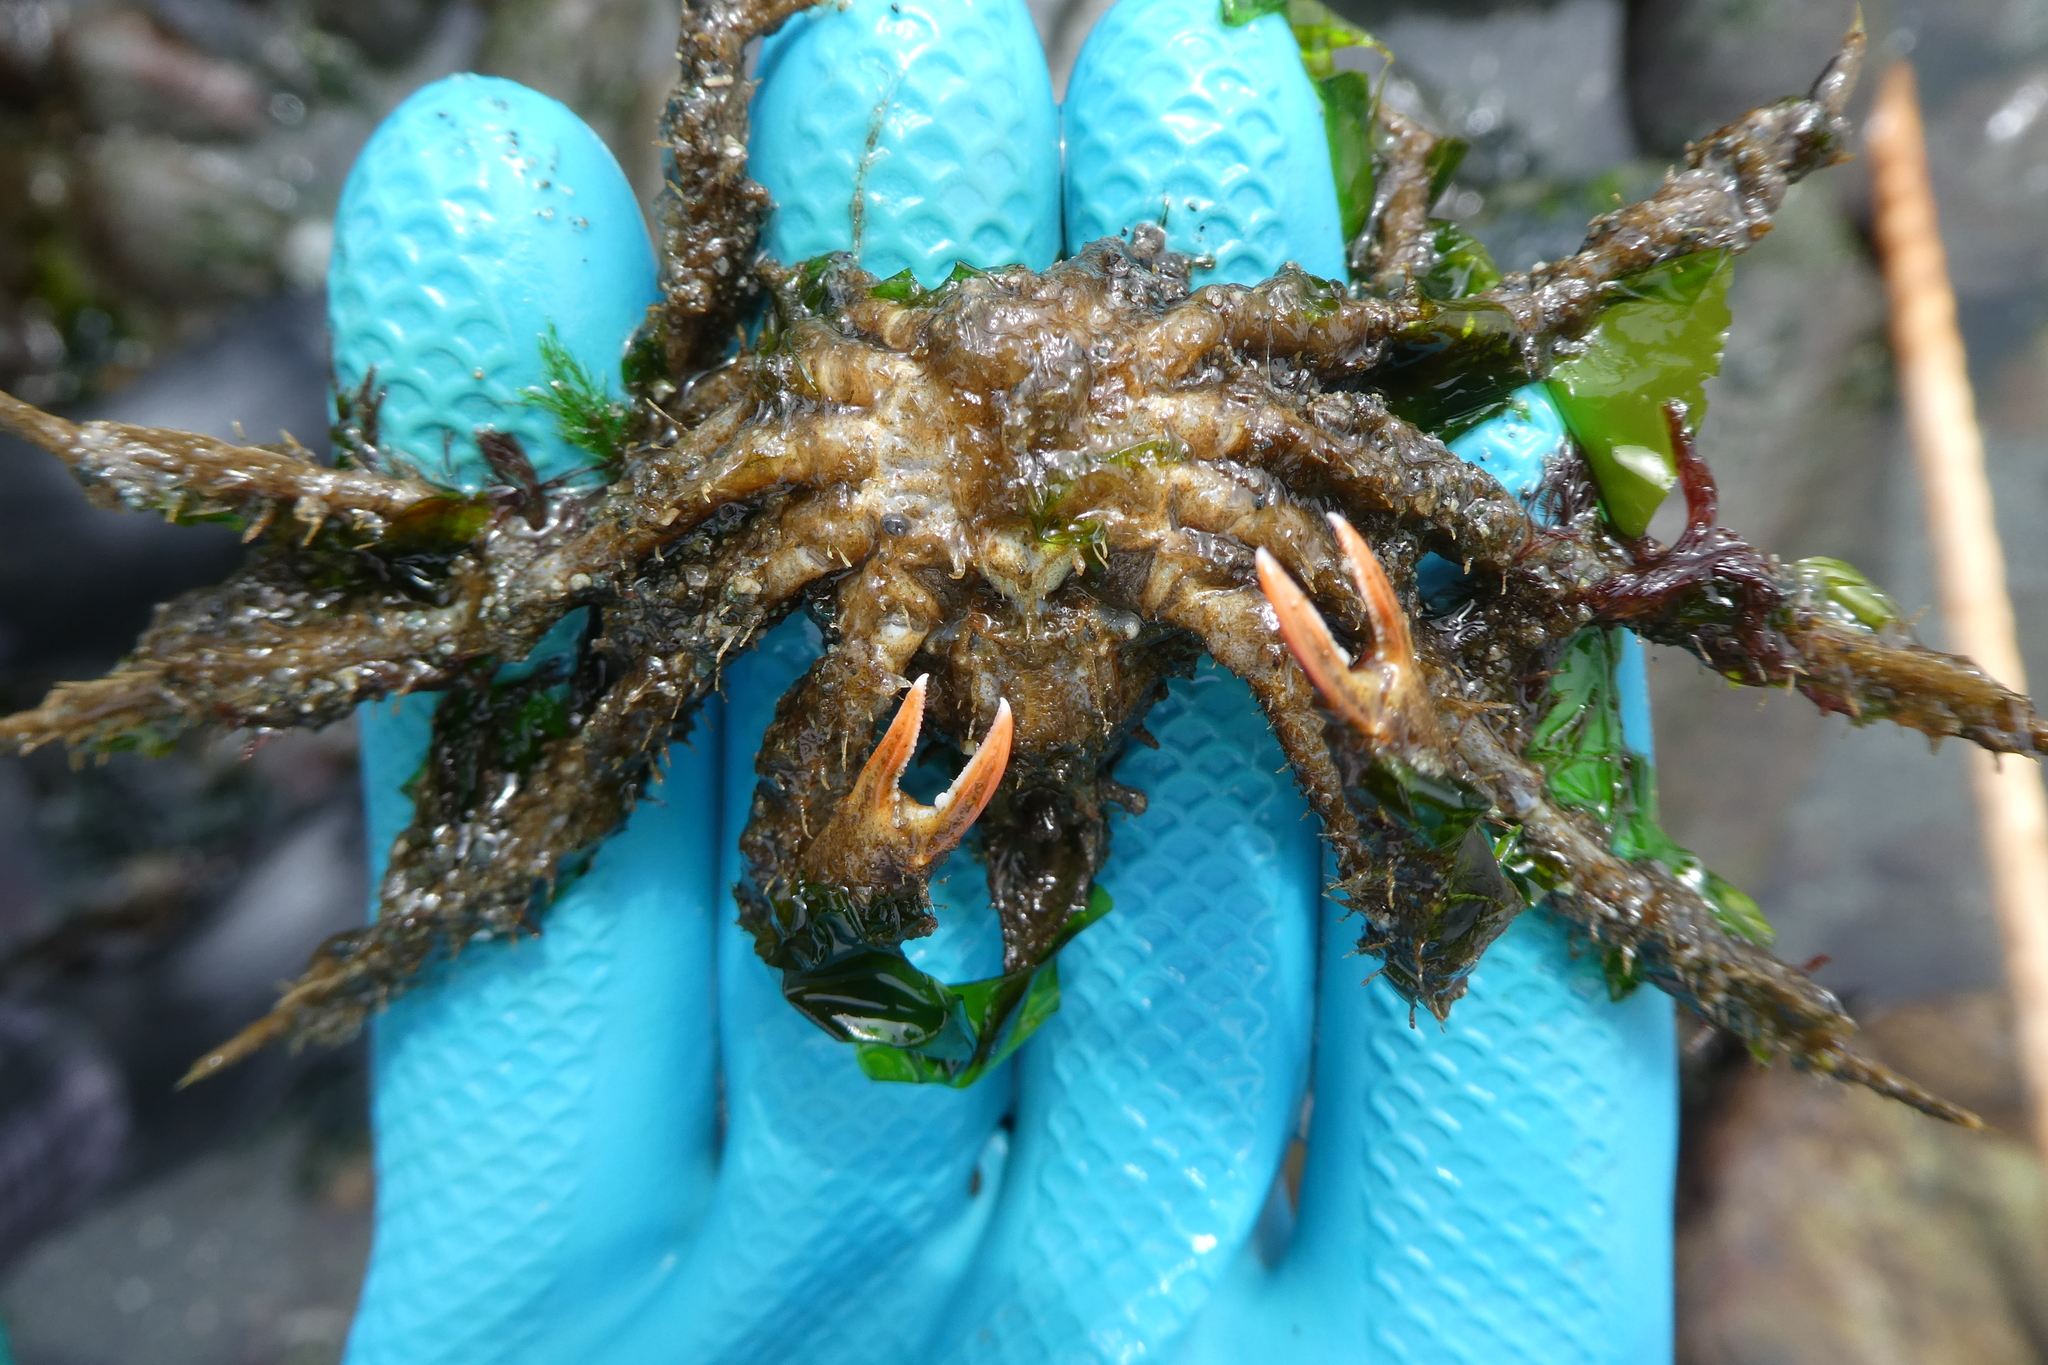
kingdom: Animalia
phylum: Arthropoda
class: Malacostraca
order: Decapoda
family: Oregoniidae
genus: Oregonia
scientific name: Oregonia gracilis
